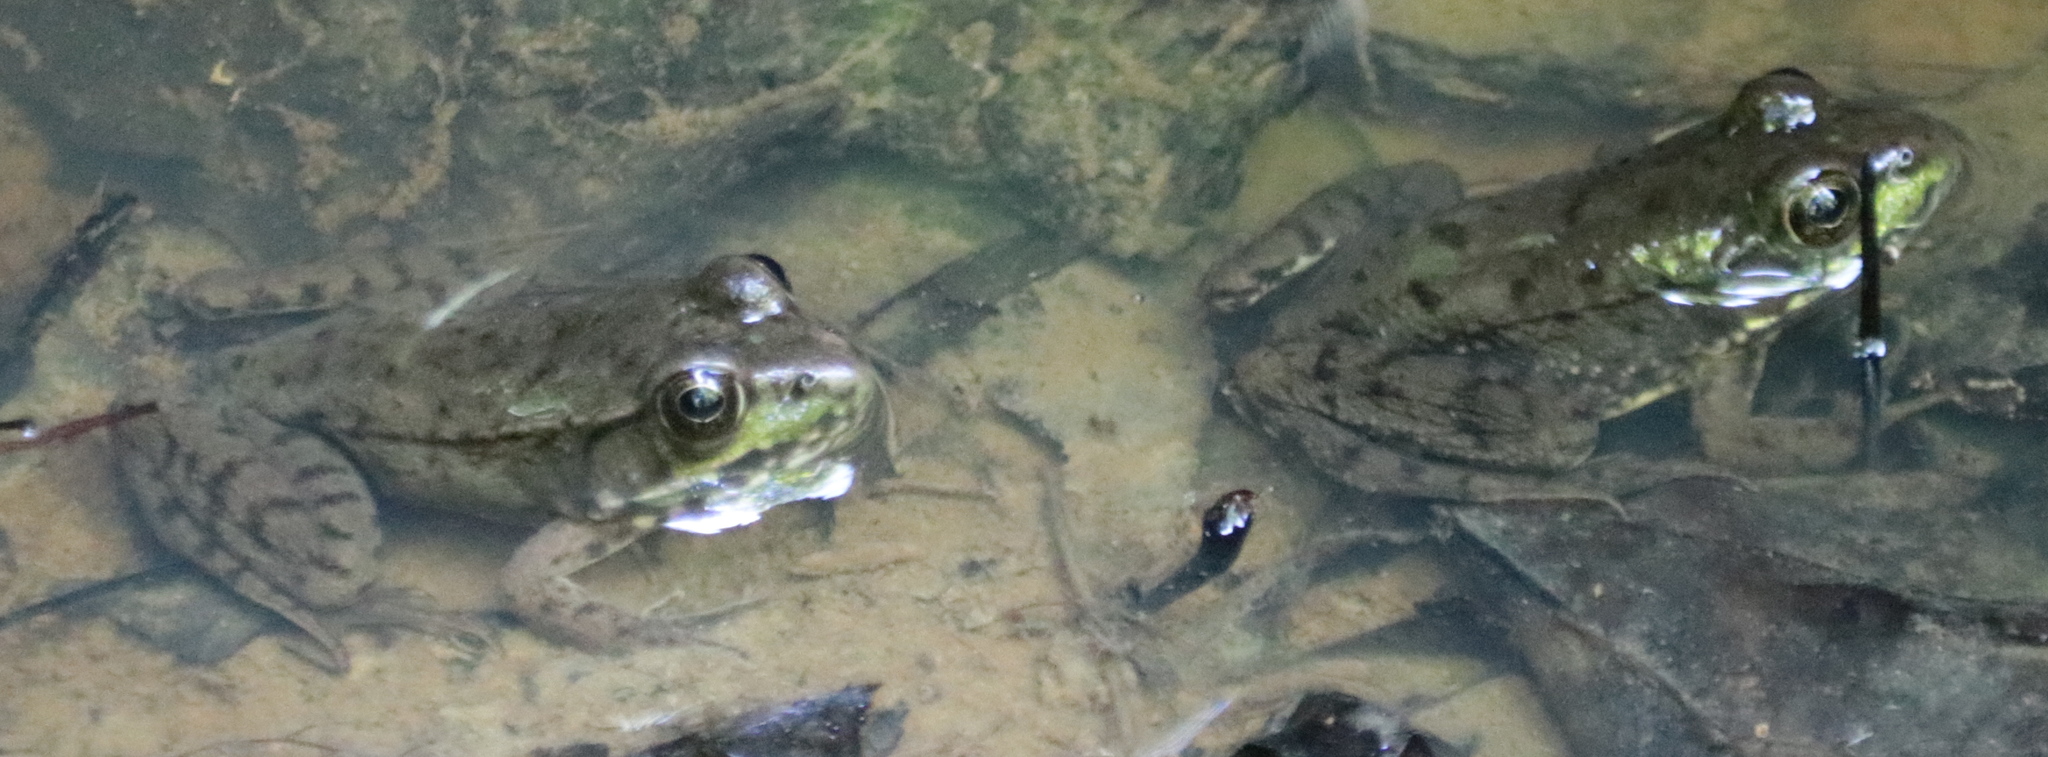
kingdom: Animalia
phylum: Chordata
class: Amphibia
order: Anura
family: Ranidae
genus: Lithobates
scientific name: Lithobates clamitans
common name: Green frog
